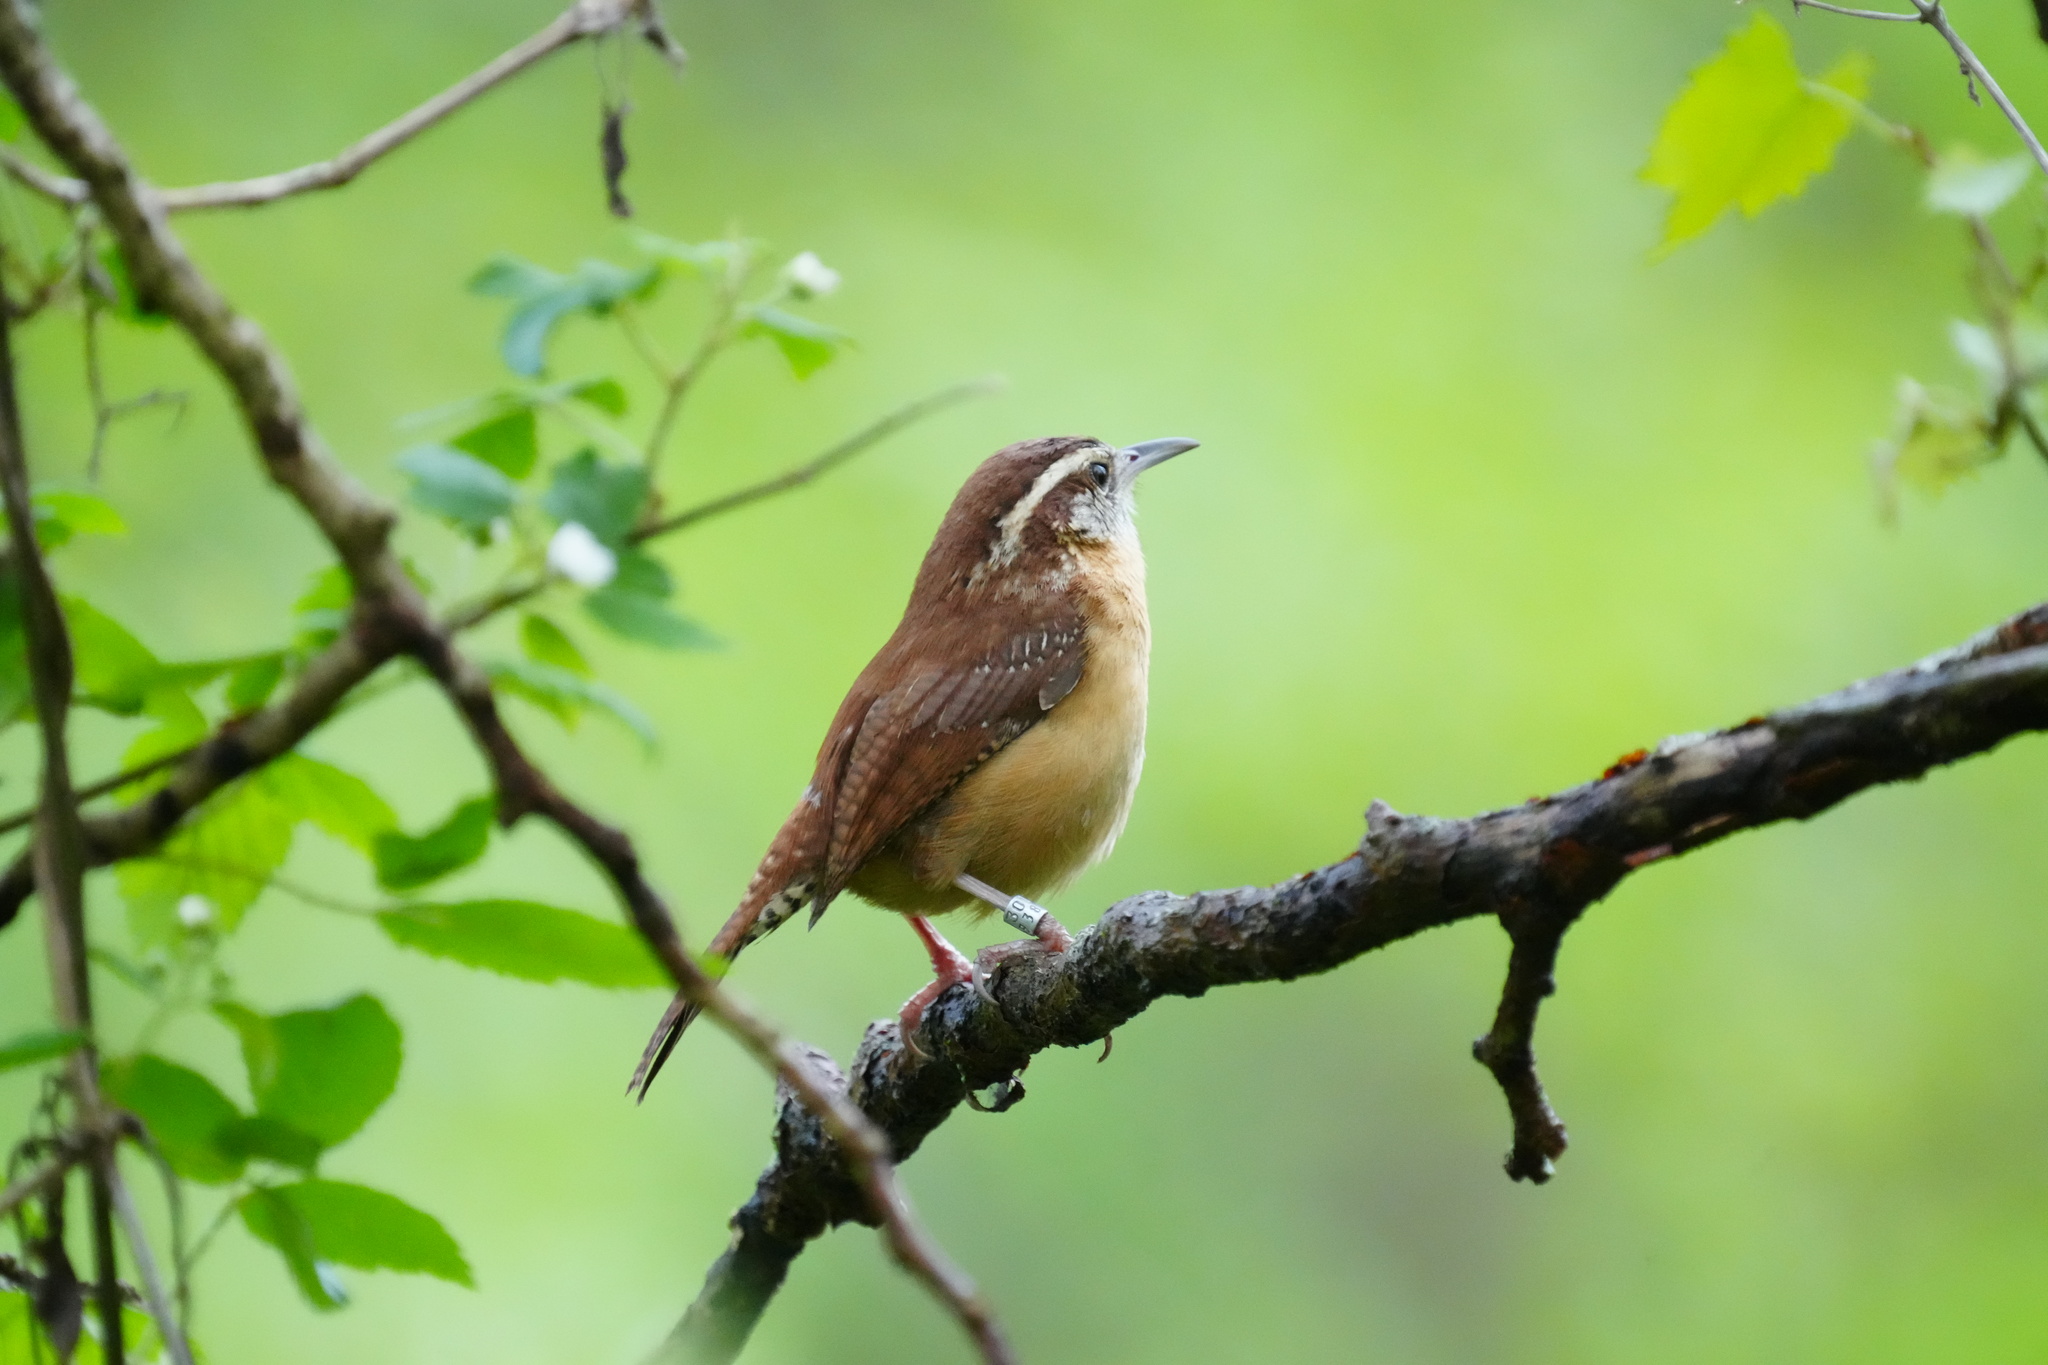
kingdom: Animalia
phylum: Chordata
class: Aves
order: Passeriformes
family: Troglodytidae
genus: Thryothorus
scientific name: Thryothorus ludovicianus
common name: Carolina wren
